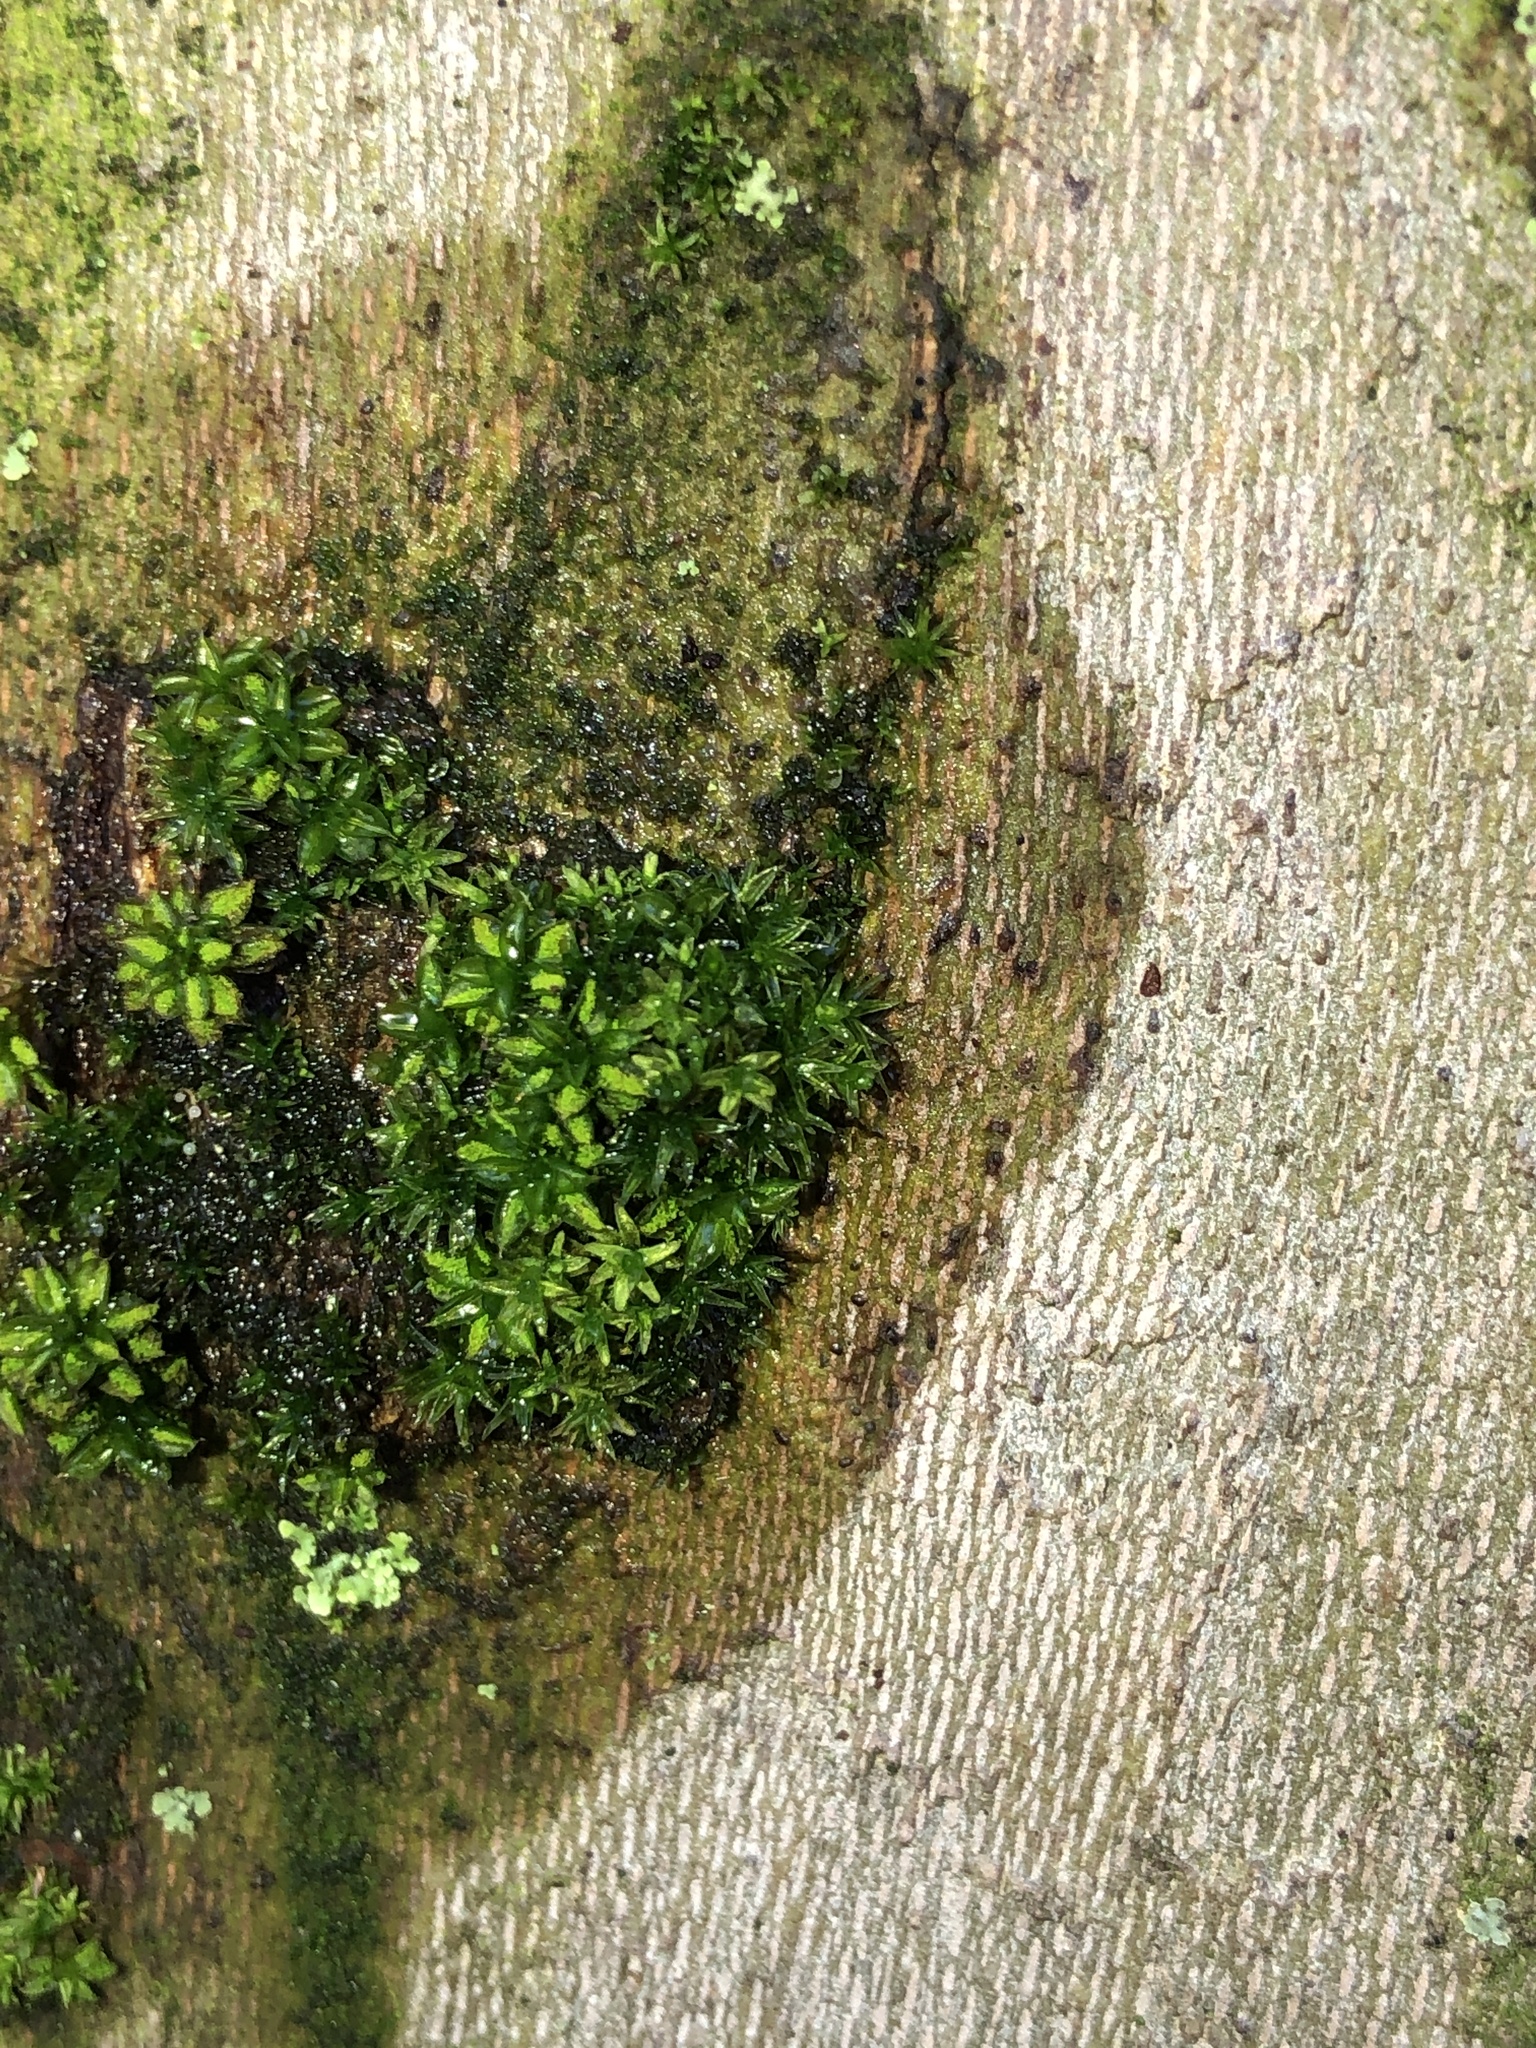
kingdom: Plantae
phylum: Bryophyta
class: Bryopsida
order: Pottiales
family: Pottiaceae
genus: Syntrichia
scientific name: Syntrichia papillosa
